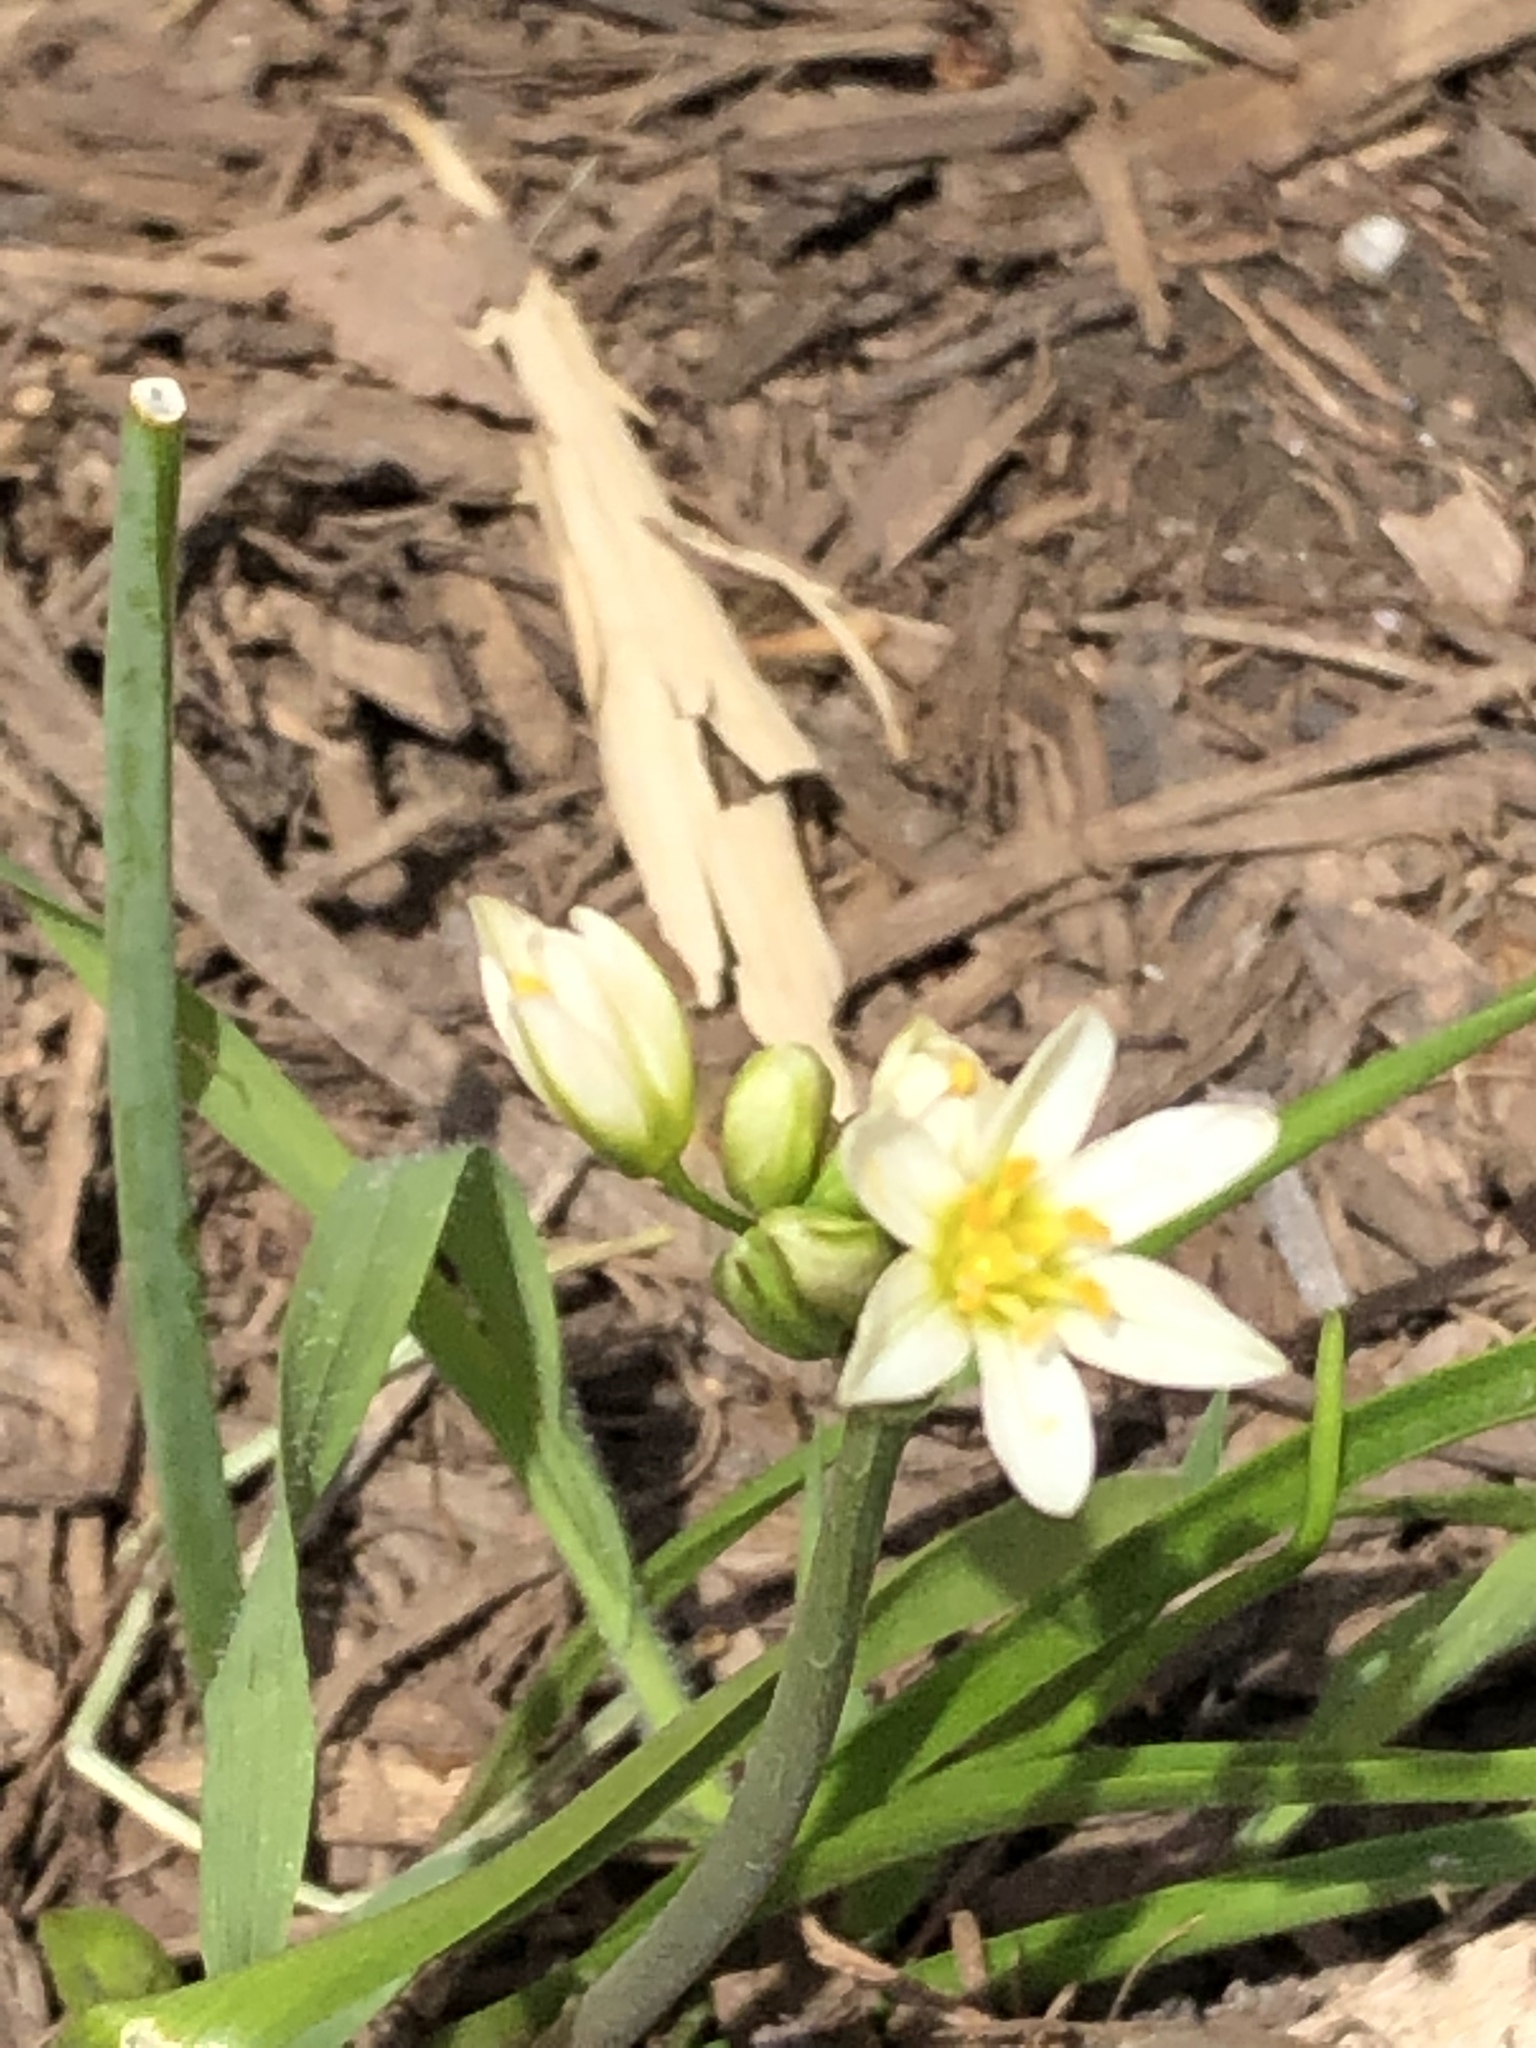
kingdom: Plantae
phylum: Tracheophyta
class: Liliopsida
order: Asparagales
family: Amaryllidaceae
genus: Nothoscordum
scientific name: Nothoscordum bivalve
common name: Crow-poison
